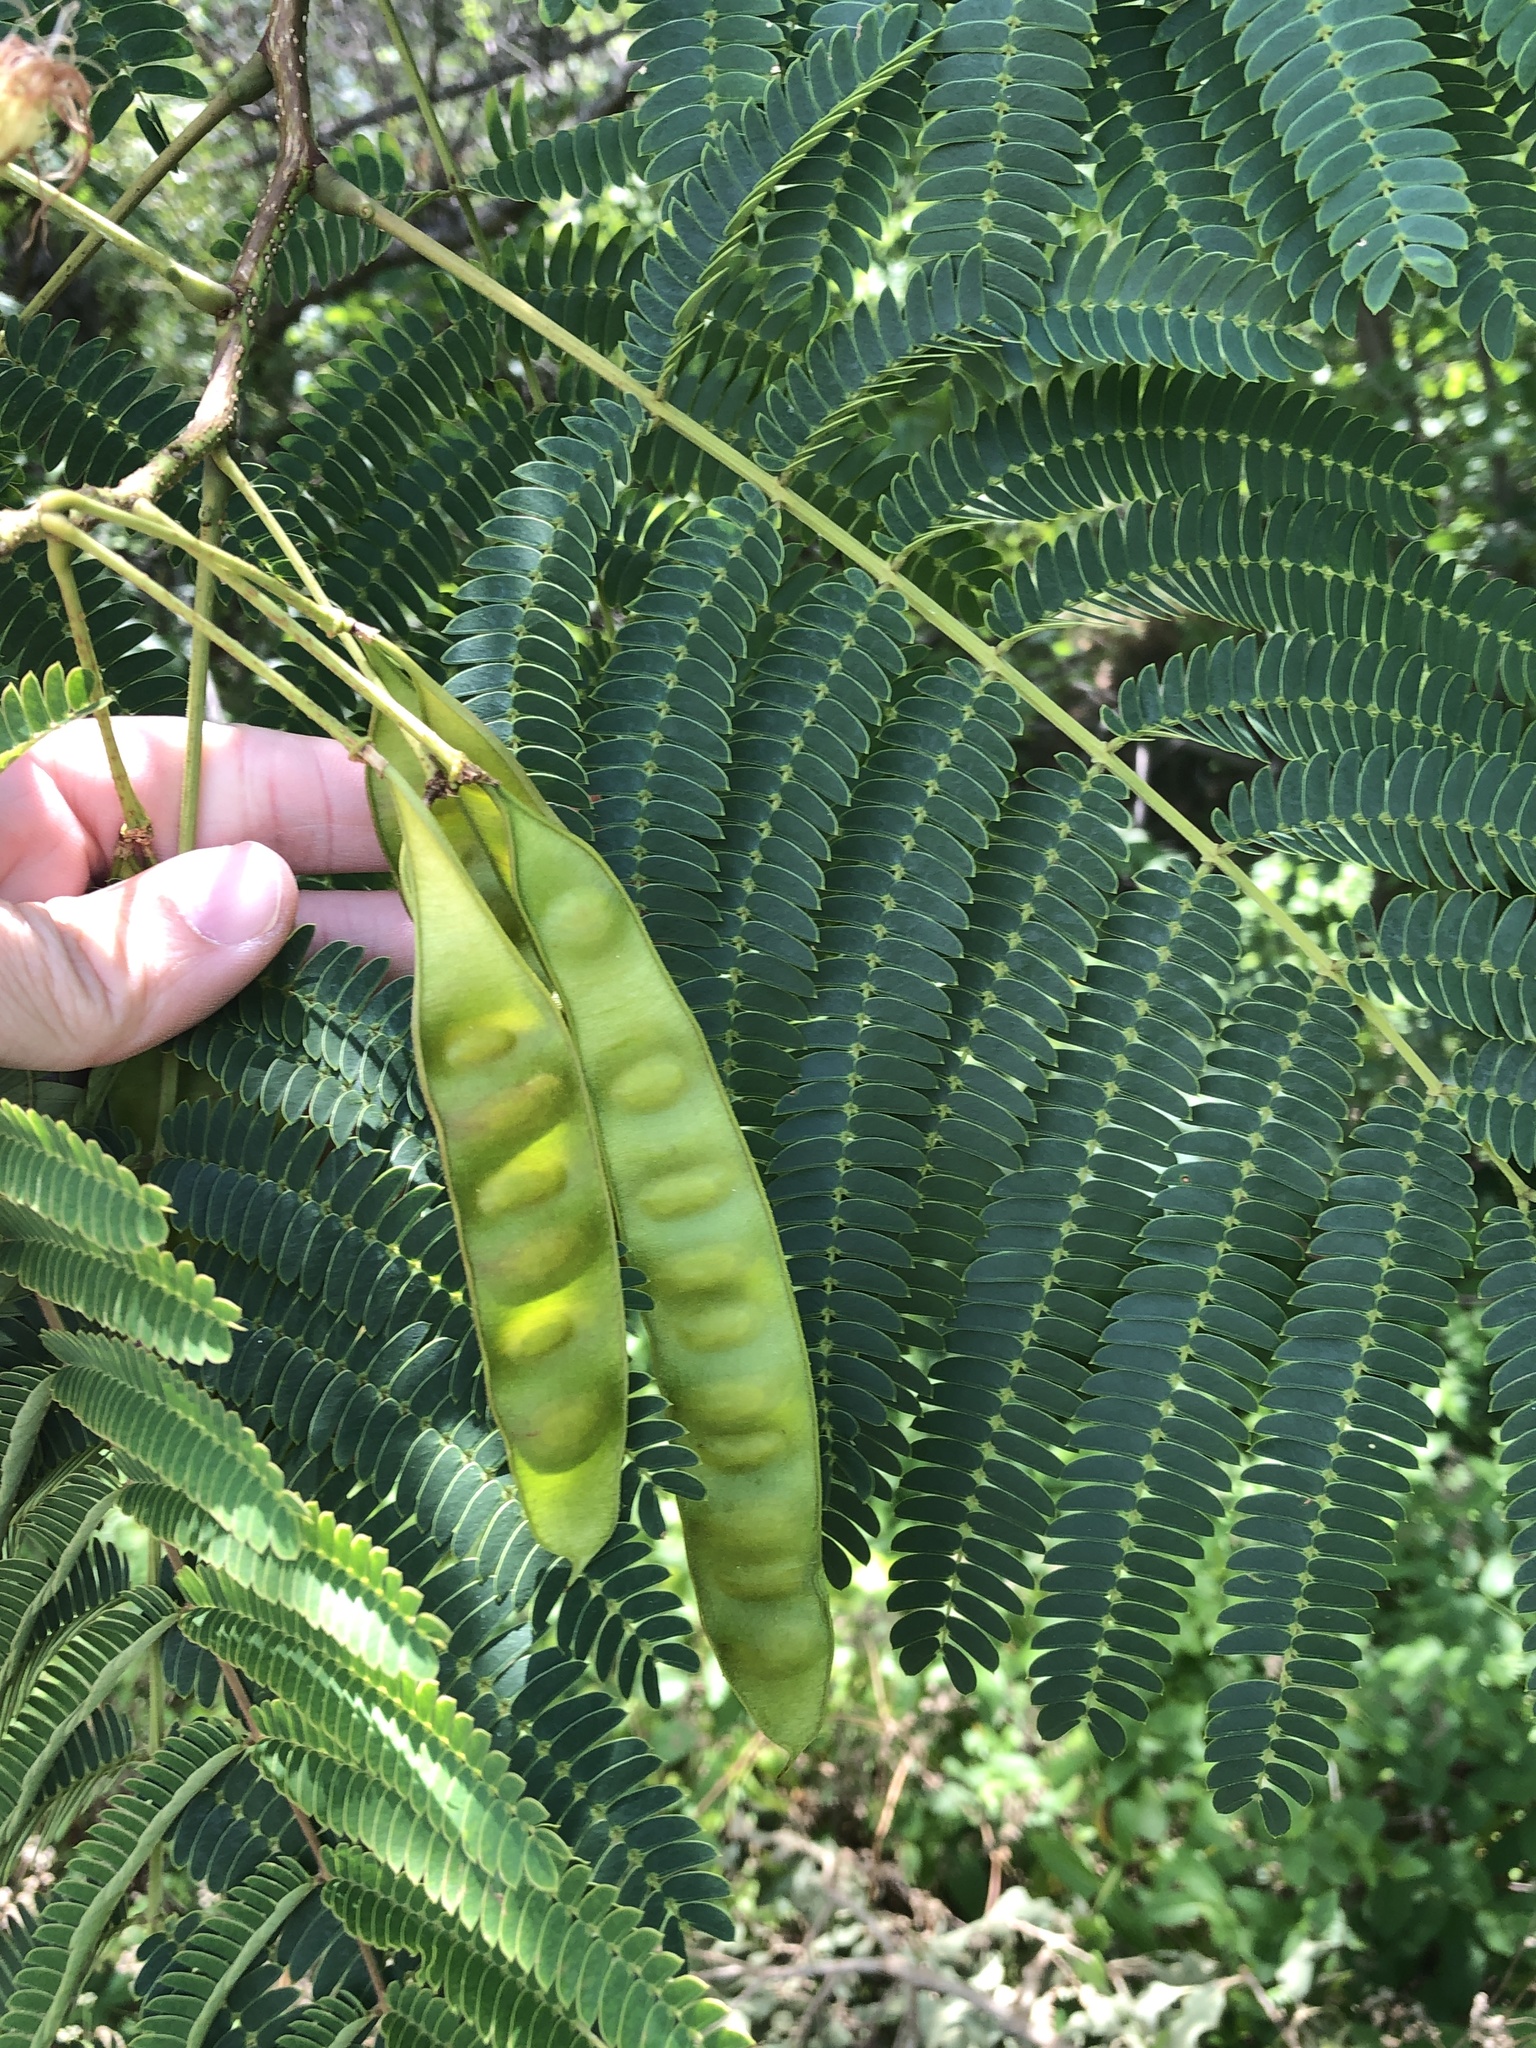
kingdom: Plantae
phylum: Tracheophyta
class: Magnoliopsida
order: Fabales
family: Fabaceae
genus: Albizia
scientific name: Albizia julibrissin
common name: Silktree
